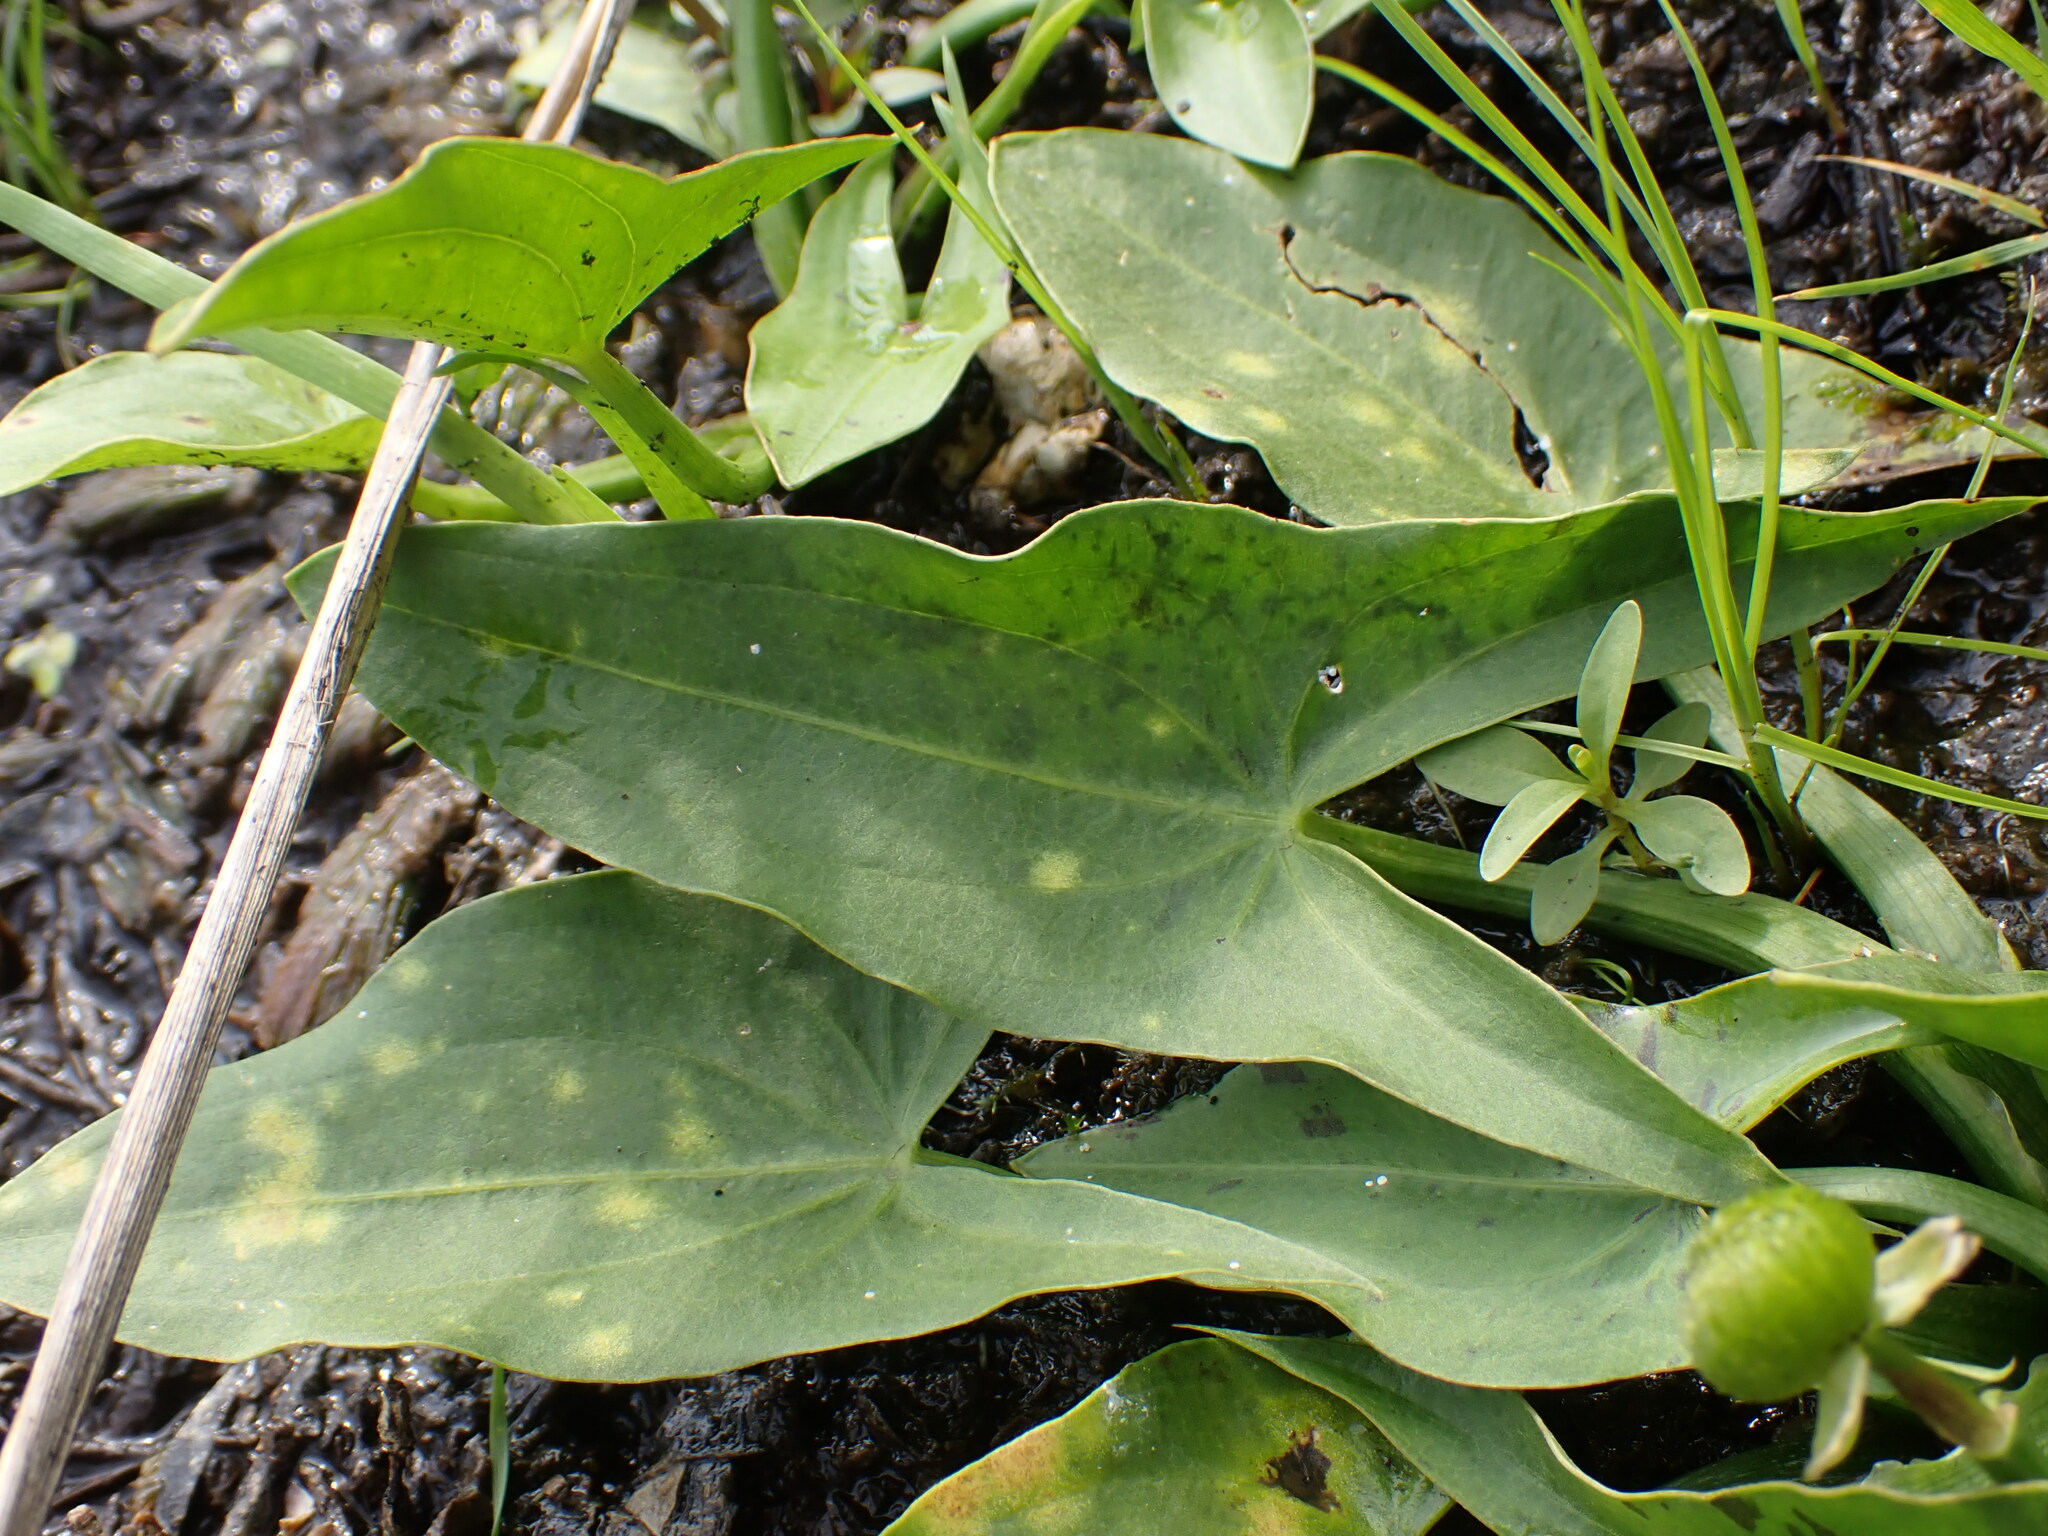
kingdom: Plantae
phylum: Tracheophyta
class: Liliopsida
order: Alismatales
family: Alismataceae
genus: Sagittaria
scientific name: Sagittaria cuneata
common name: Northern arrowhead
